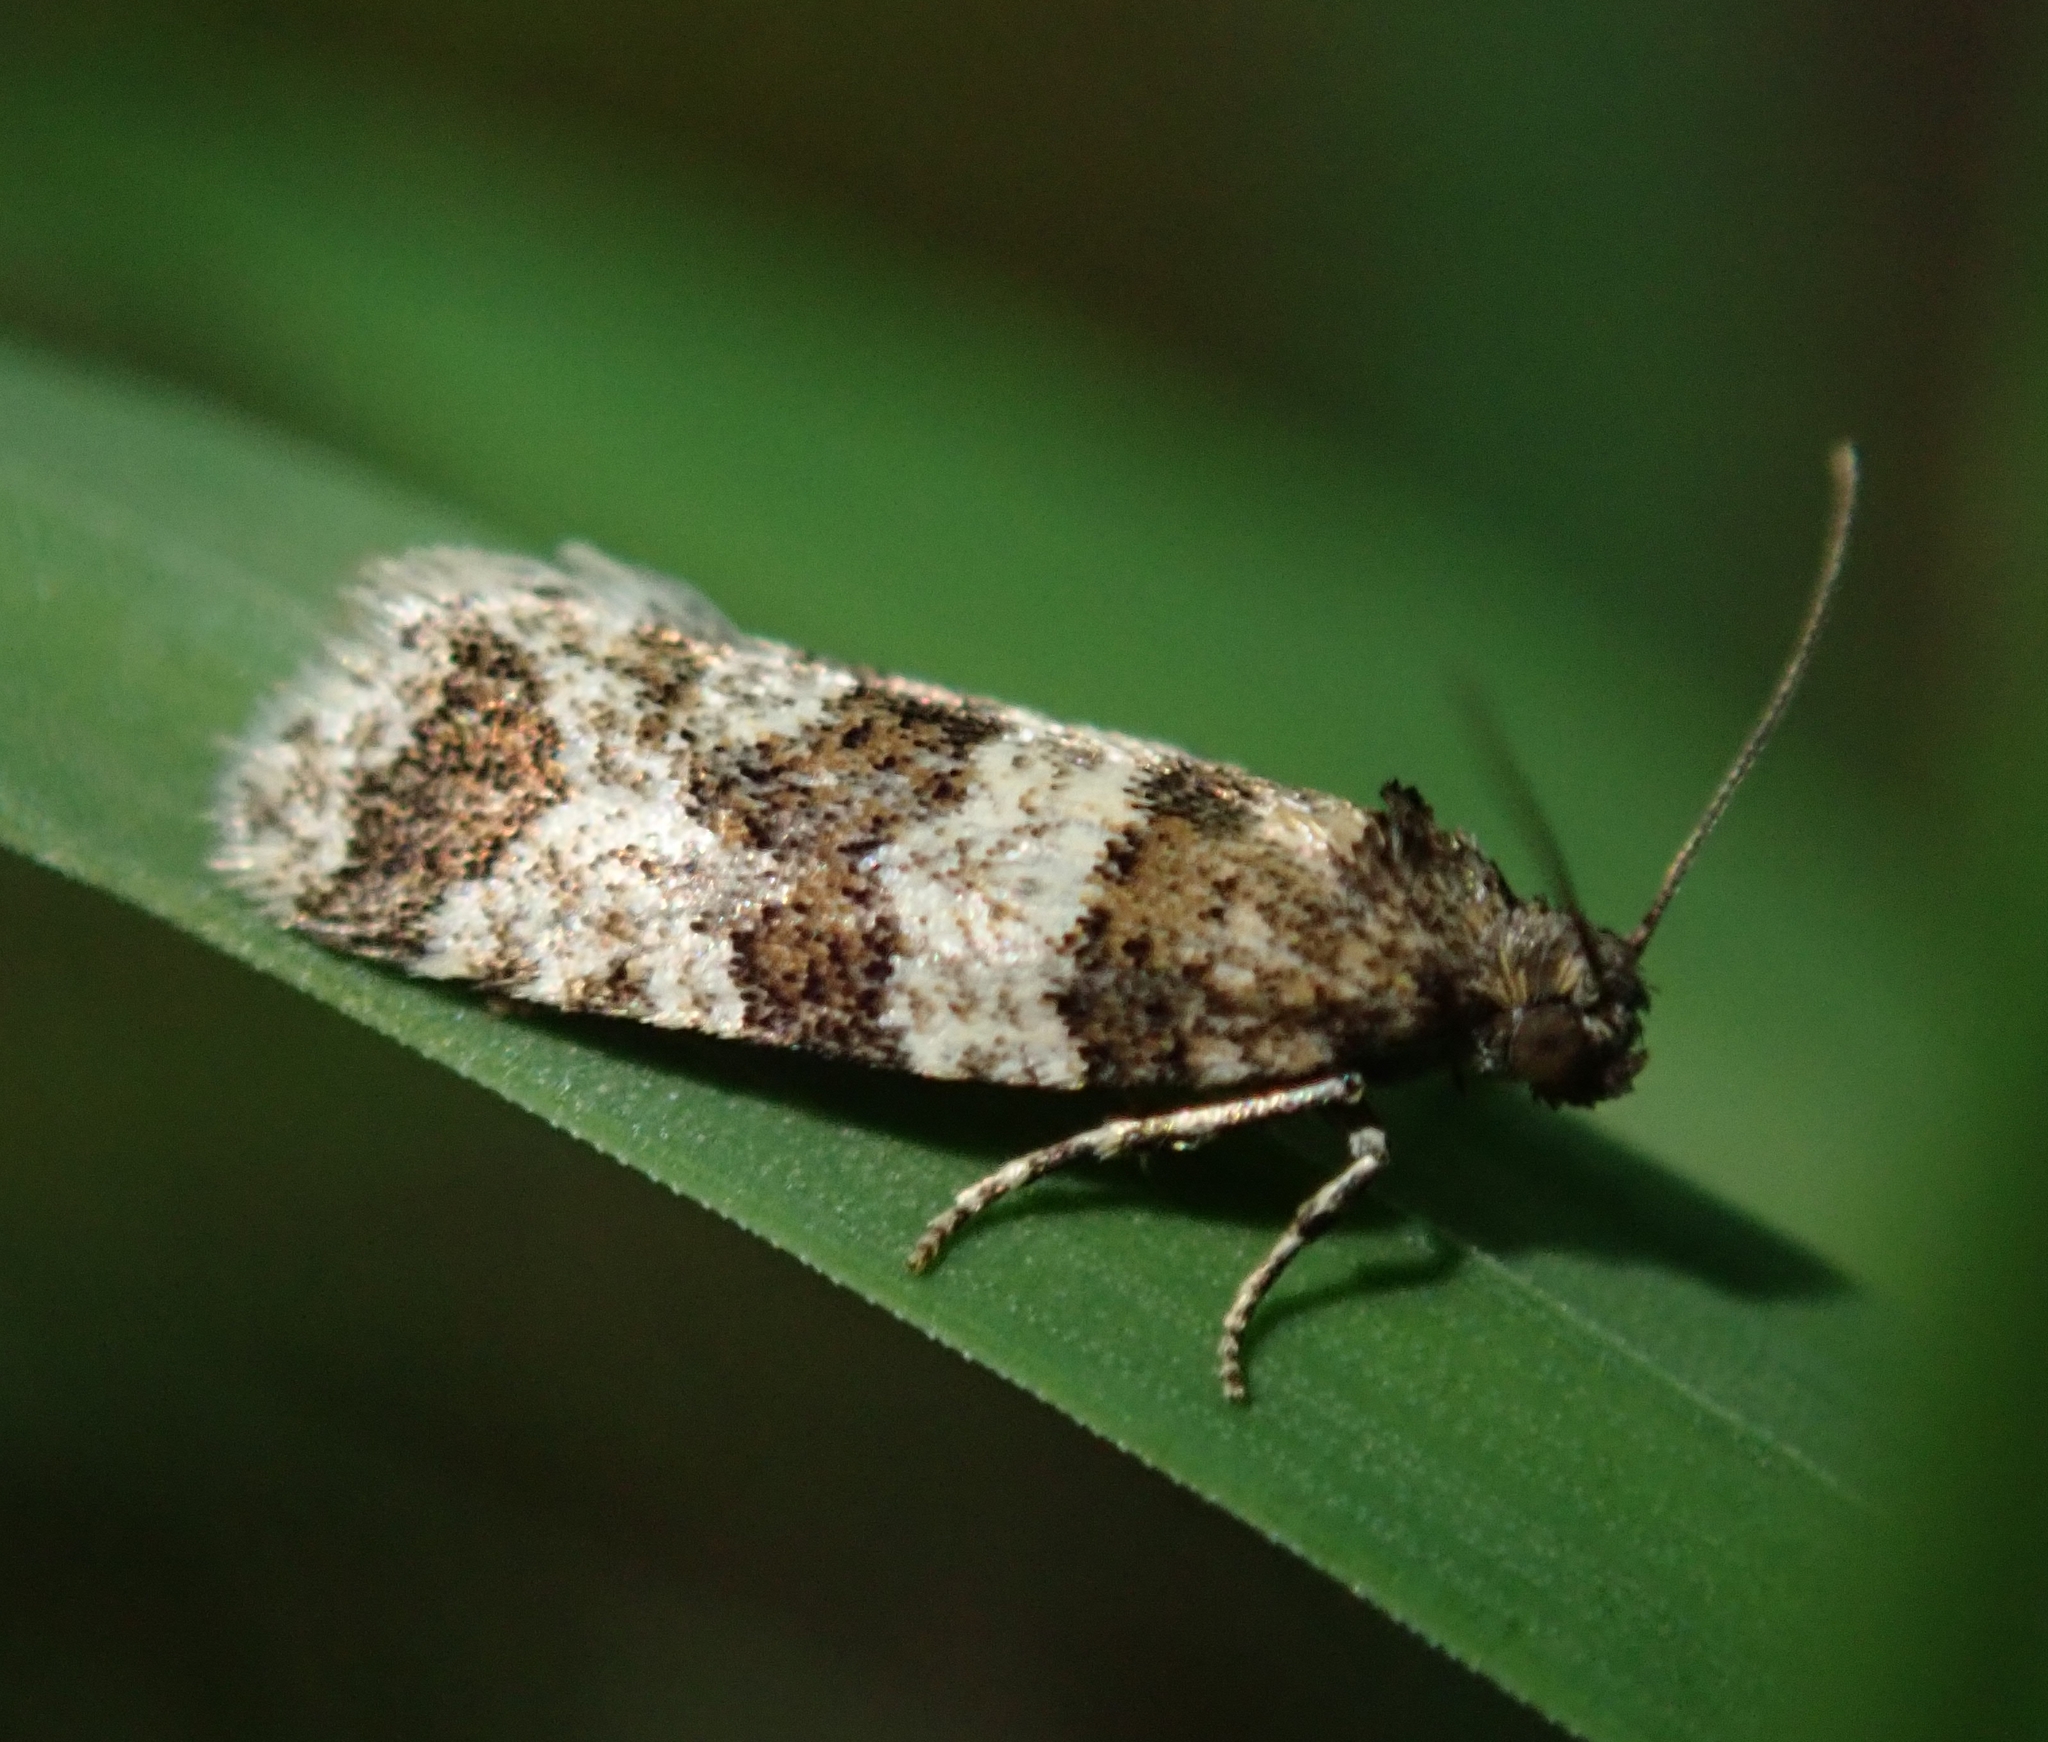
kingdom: Animalia
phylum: Arthropoda
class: Insecta
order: Lepidoptera
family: Tortricidae
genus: Isotrias
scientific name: Isotrias rectifasciana
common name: Hedge shade
